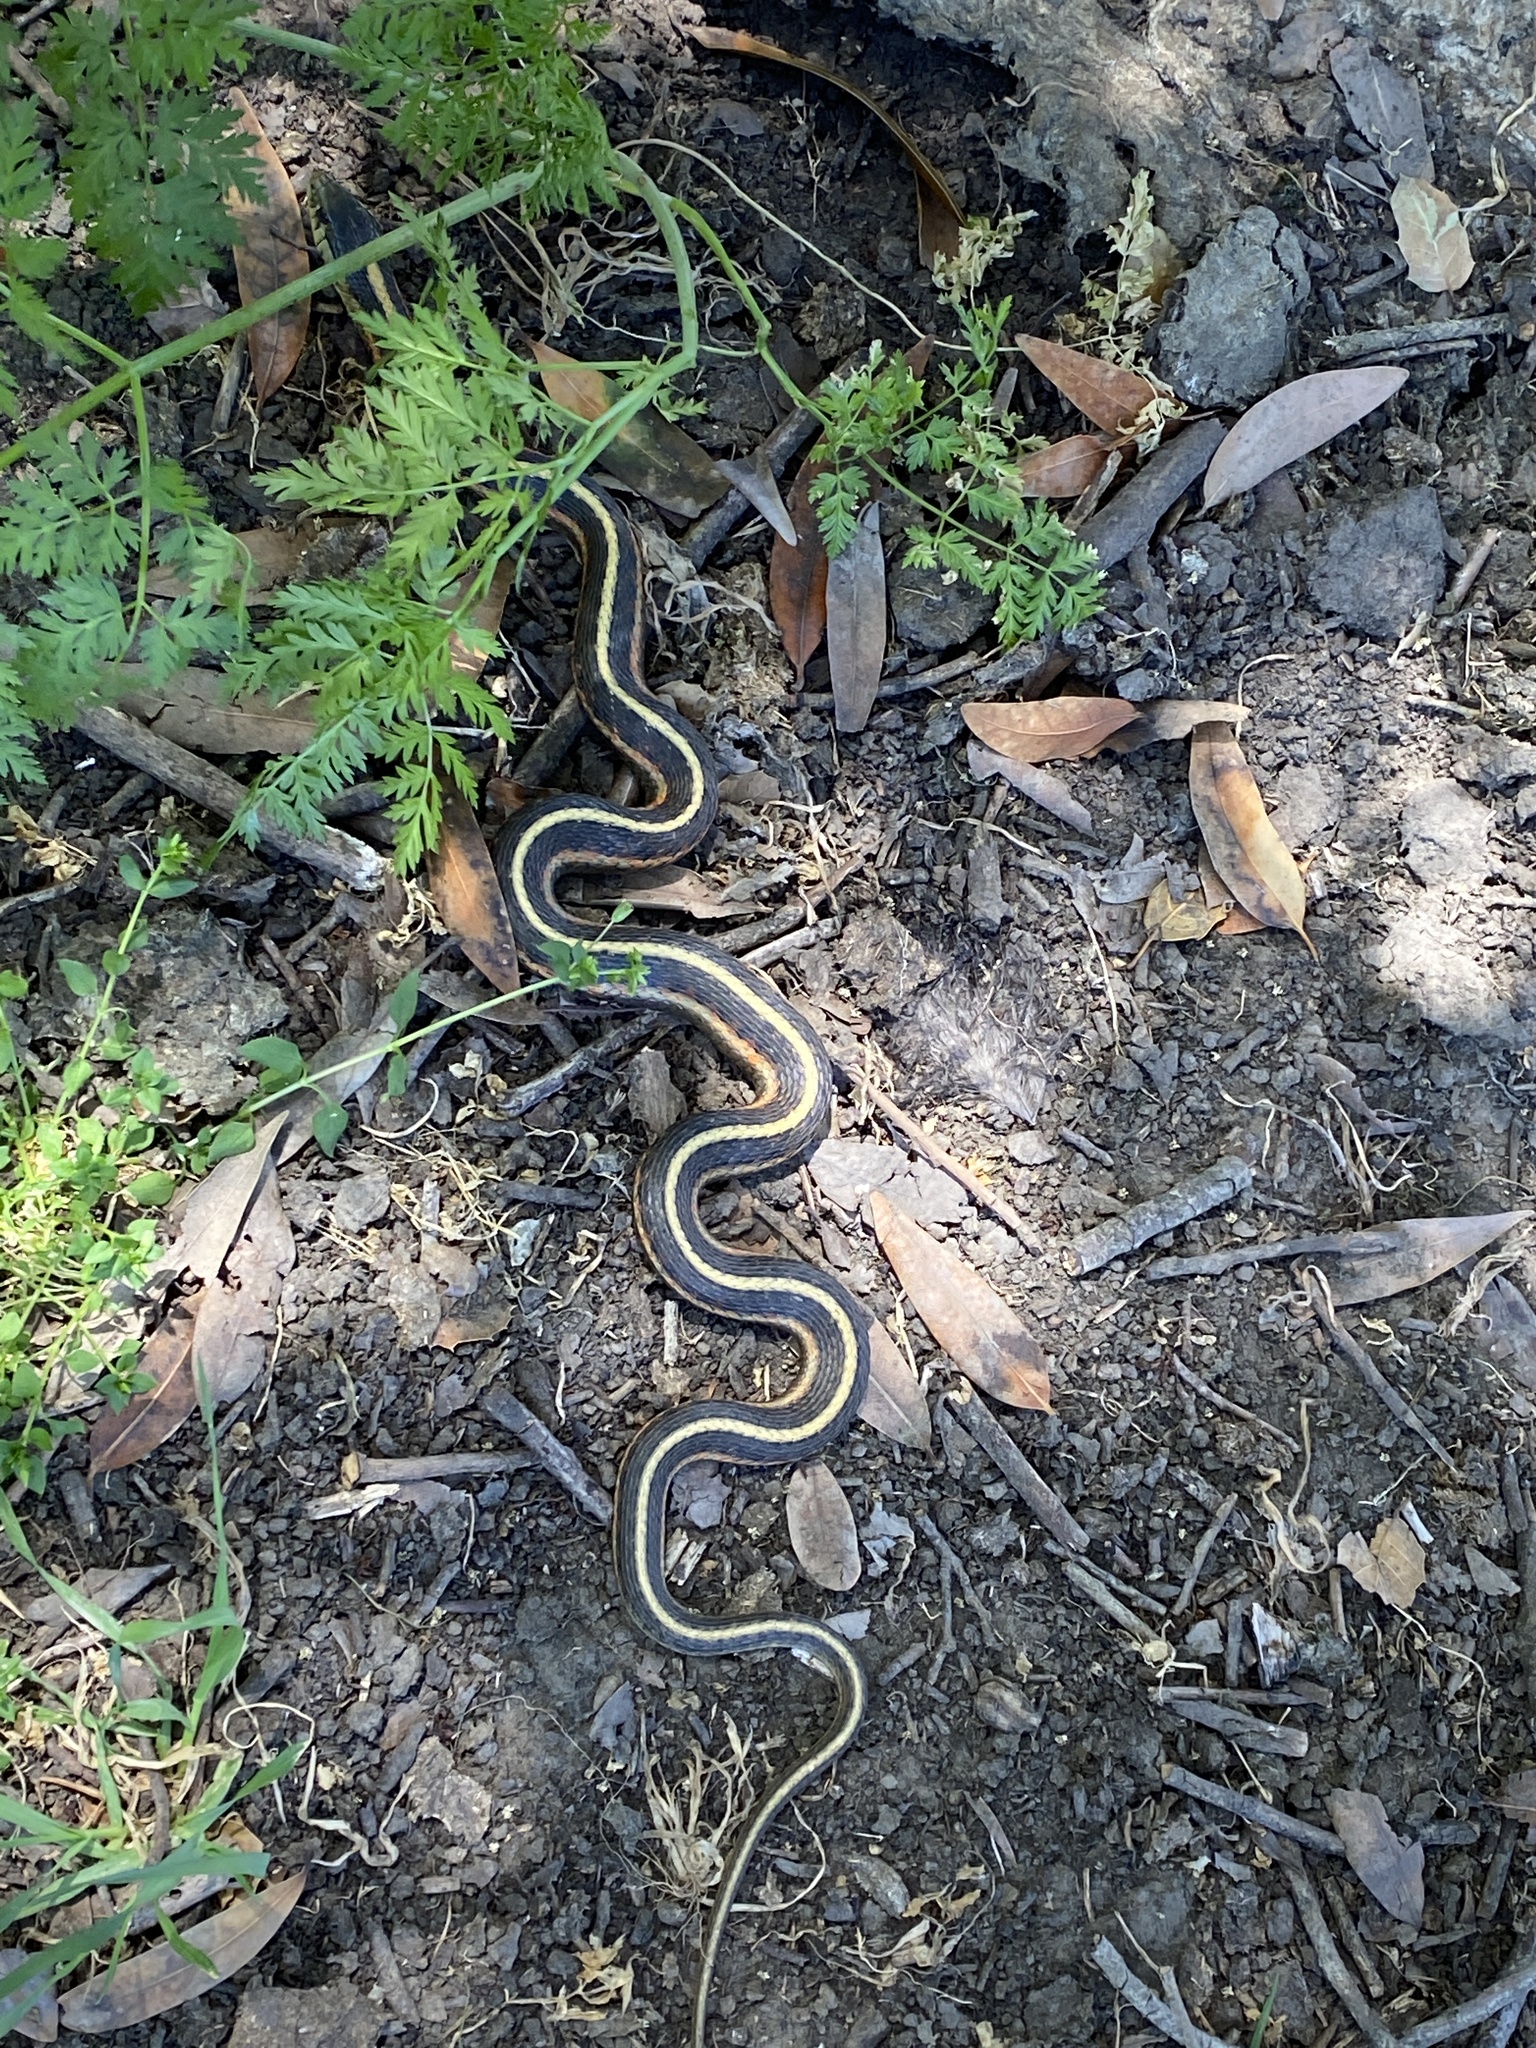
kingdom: Animalia
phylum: Chordata
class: Squamata
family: Colubridae
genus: Thamnophis
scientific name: Thamnophis elegans
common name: Western terrestrial garter snake
